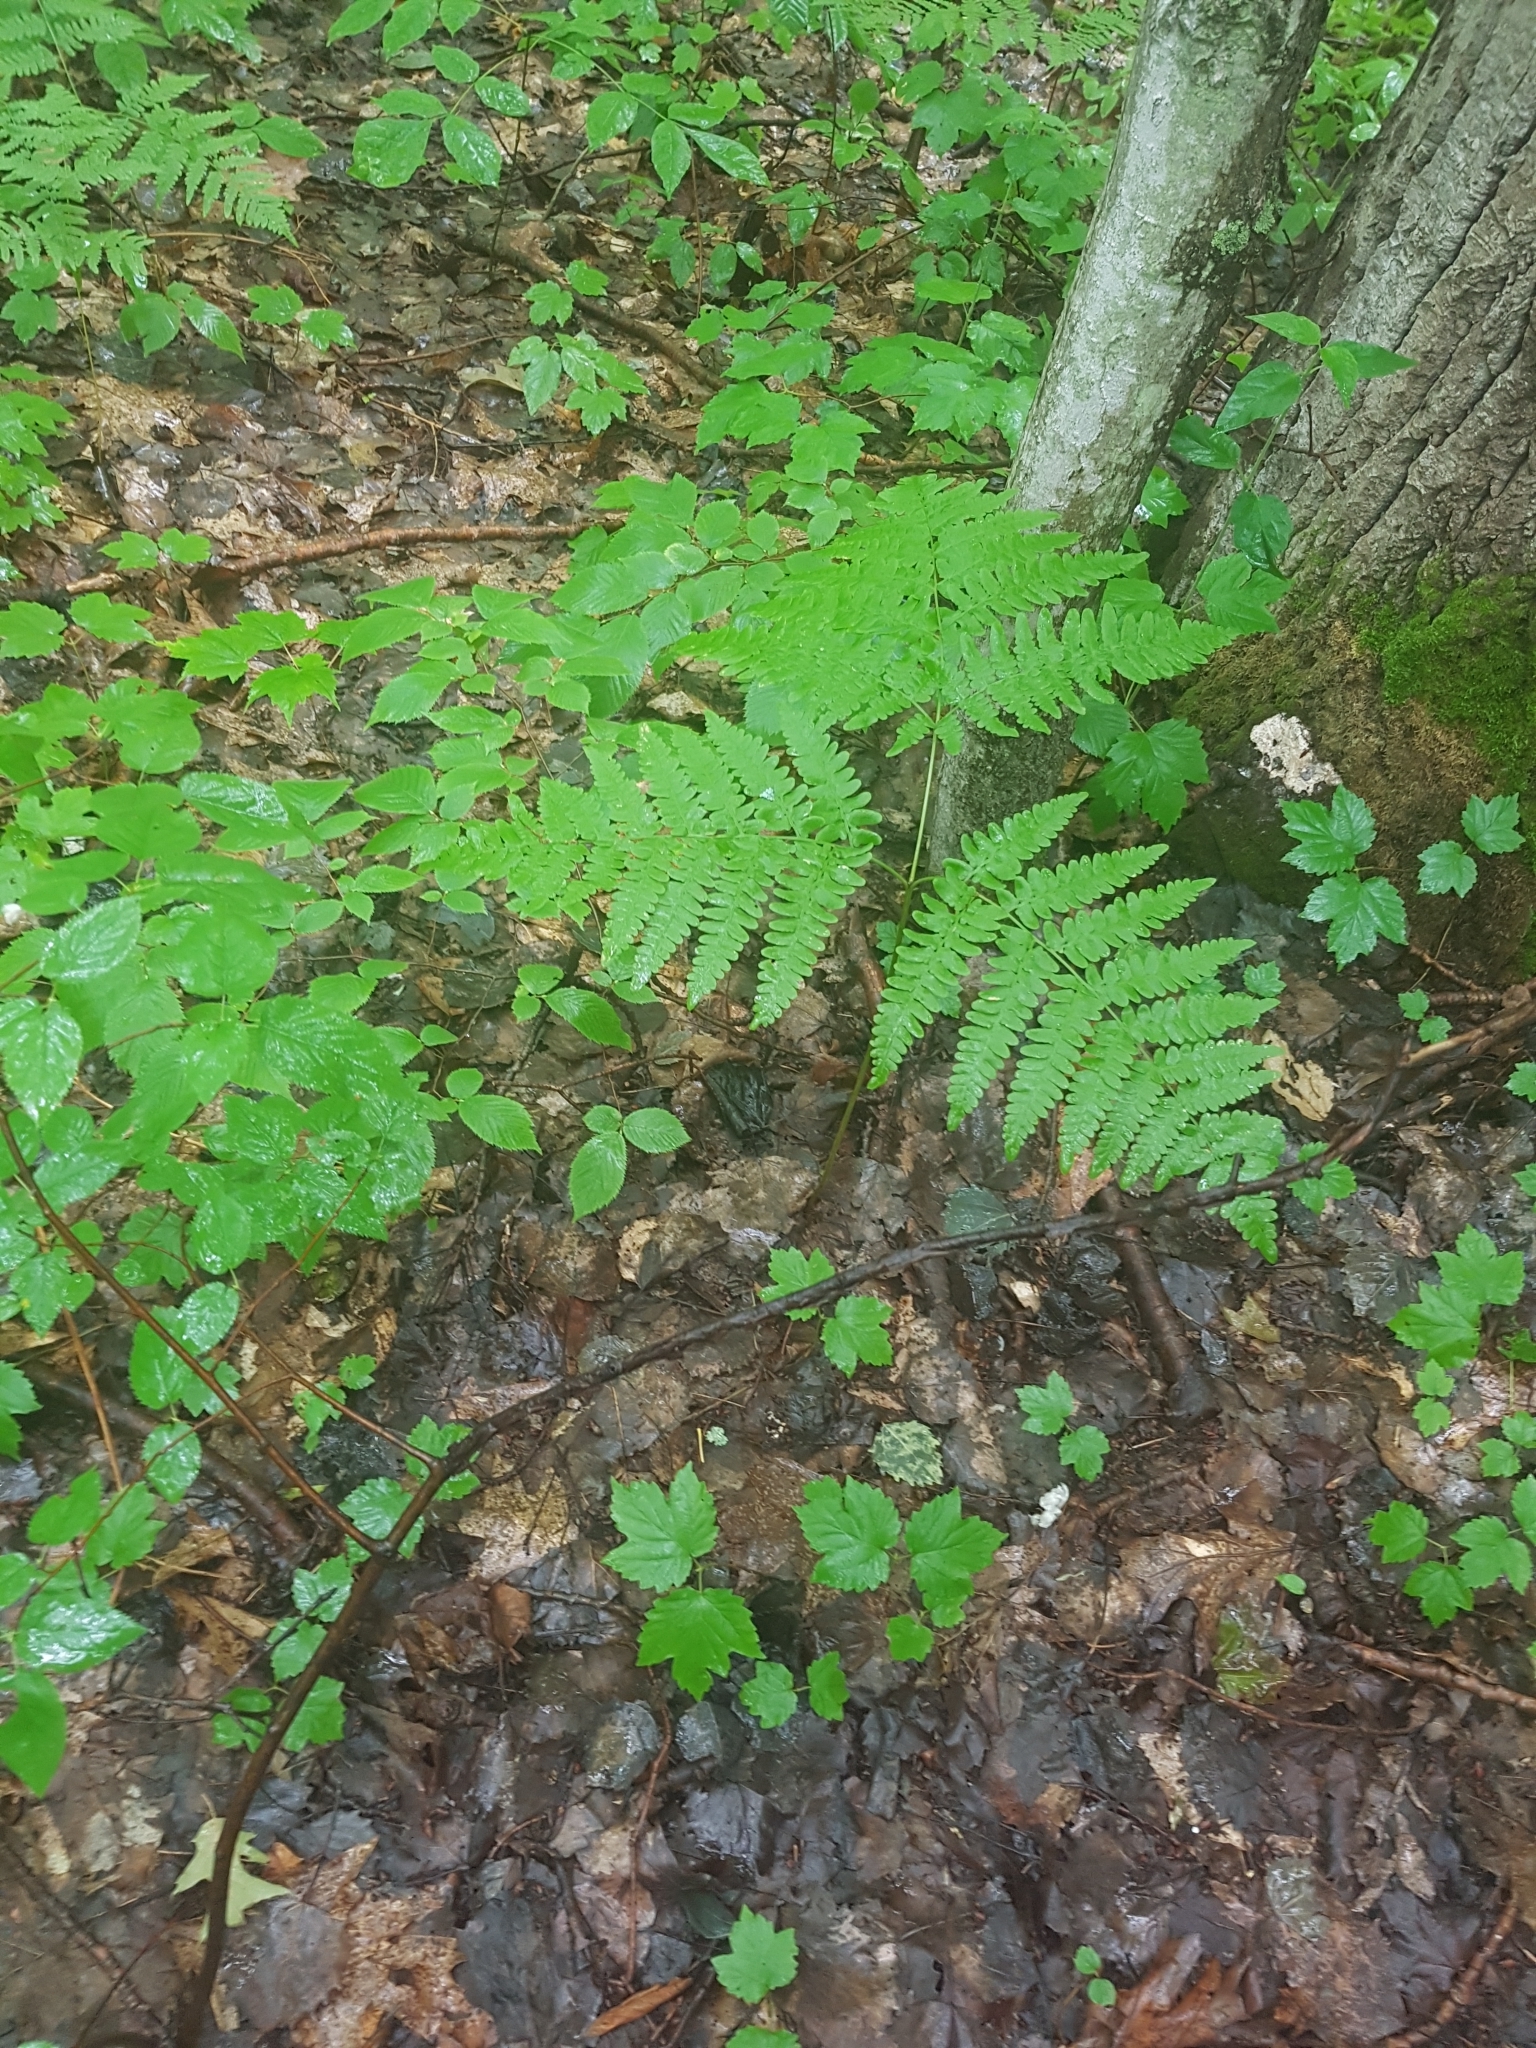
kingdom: Plantae
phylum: Tracheophyta
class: Polypodiopsida
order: Polypodiales
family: Dennstaedtiaceae
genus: Pteridium
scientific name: Pteridium aquilinum
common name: Bracken
